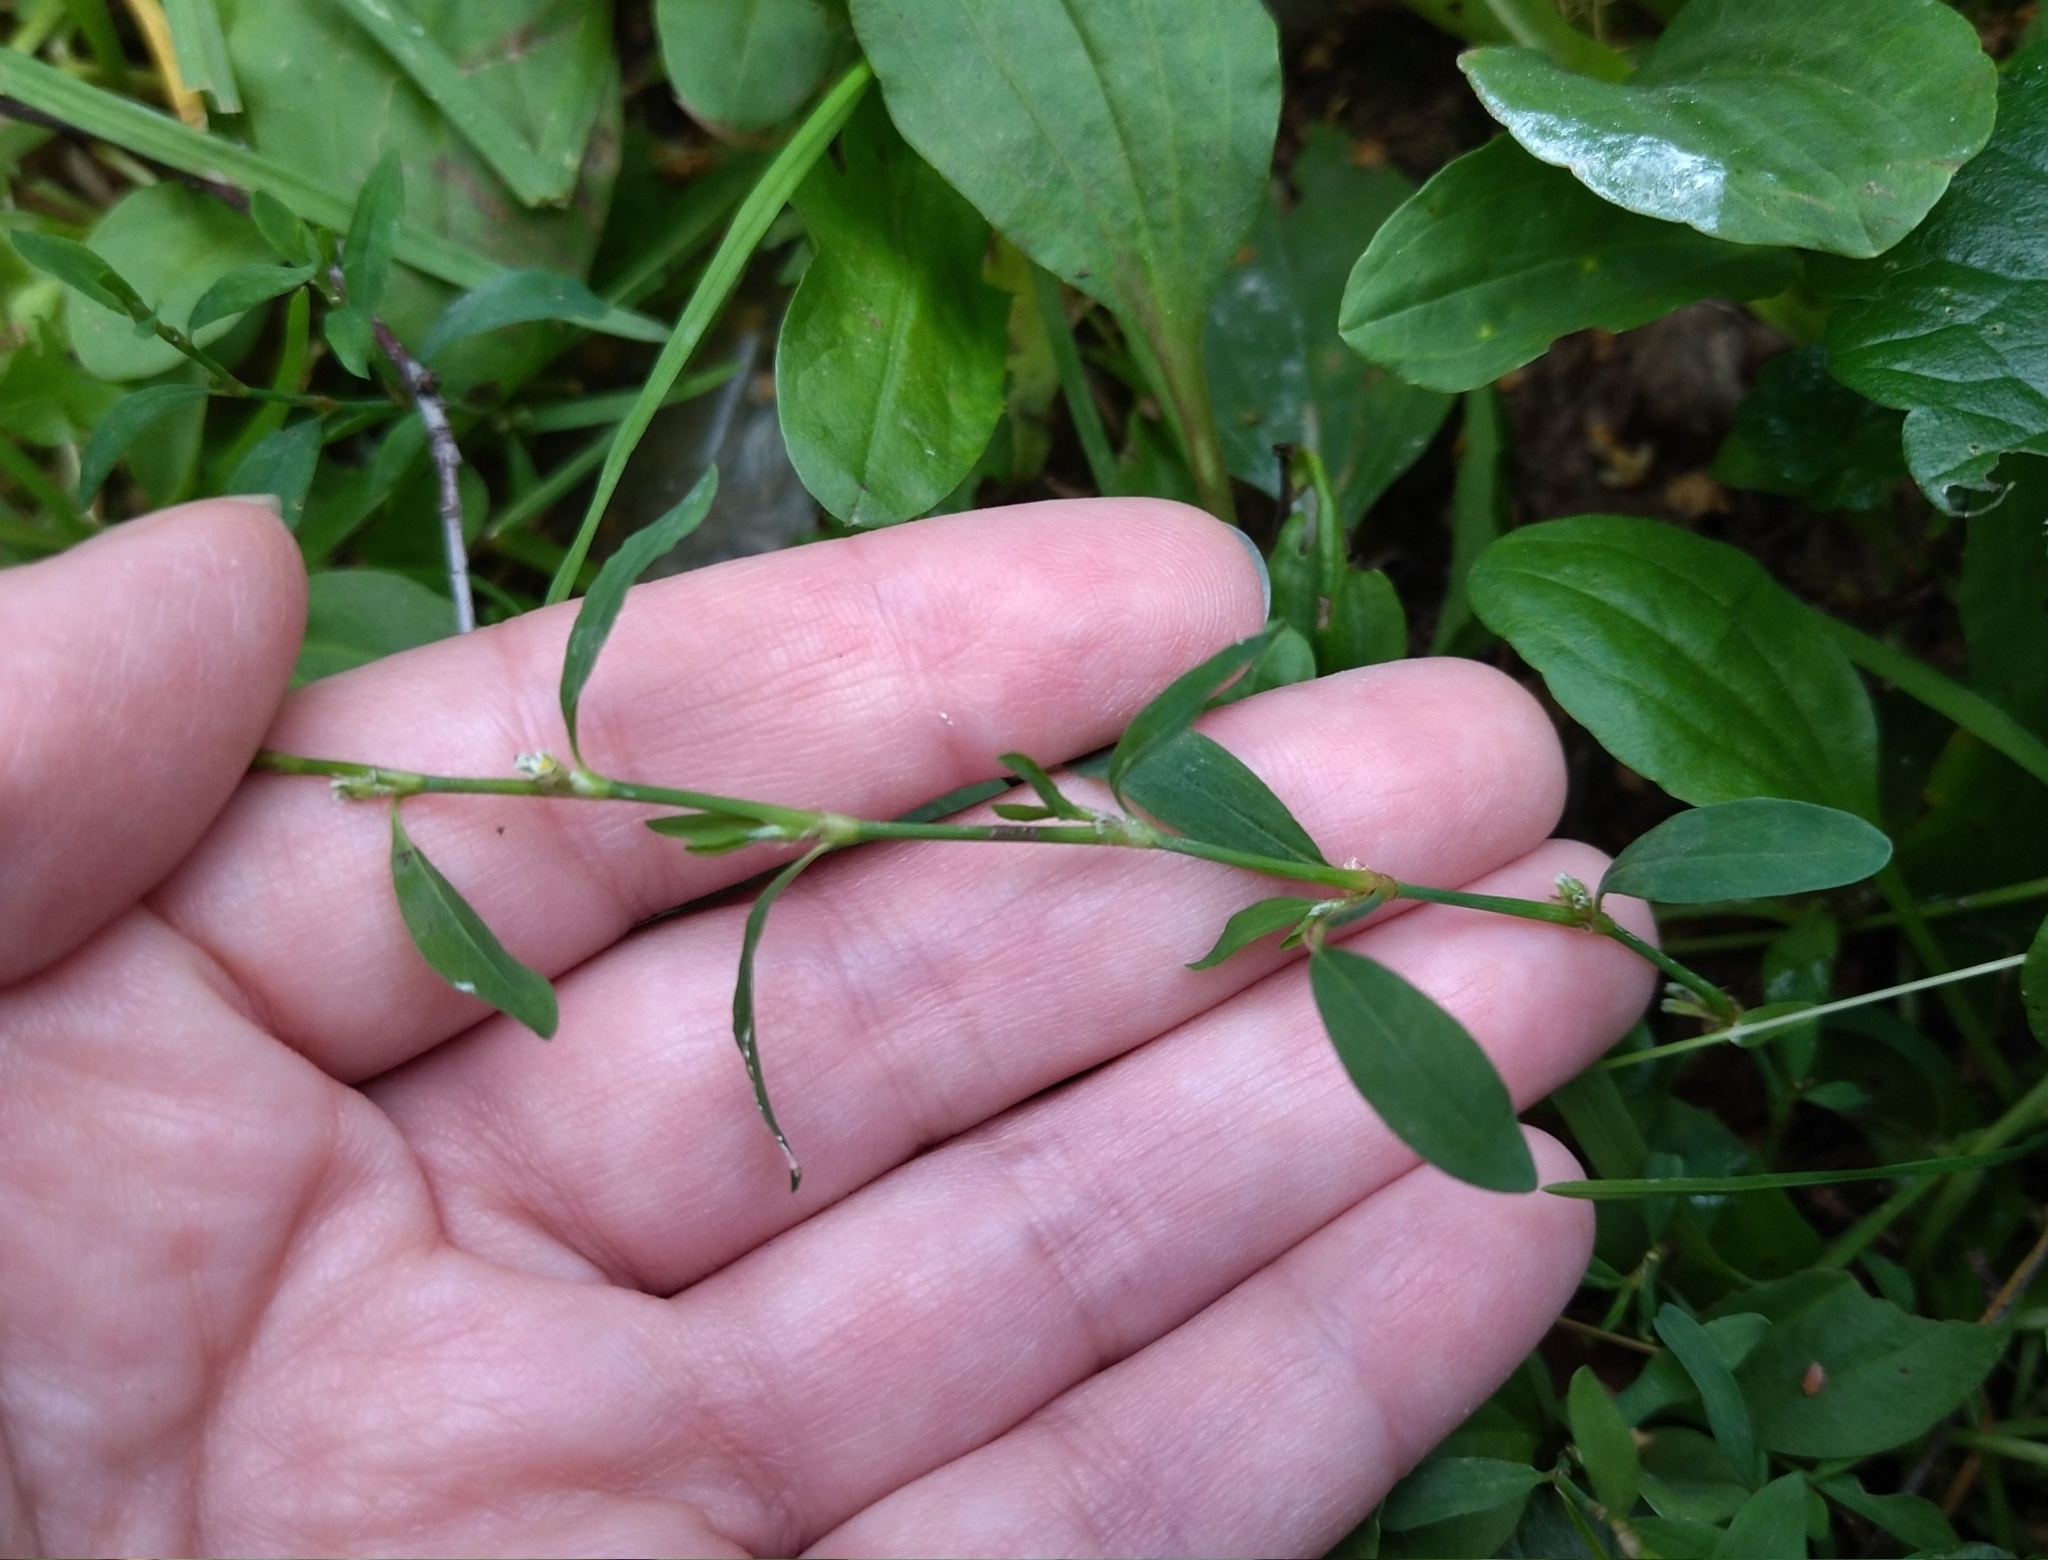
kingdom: Plantae
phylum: Tracheophyta
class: Magnoliopsida
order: Caryophyllales
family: Polygonaceae
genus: Polygonum
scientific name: Polygonum
